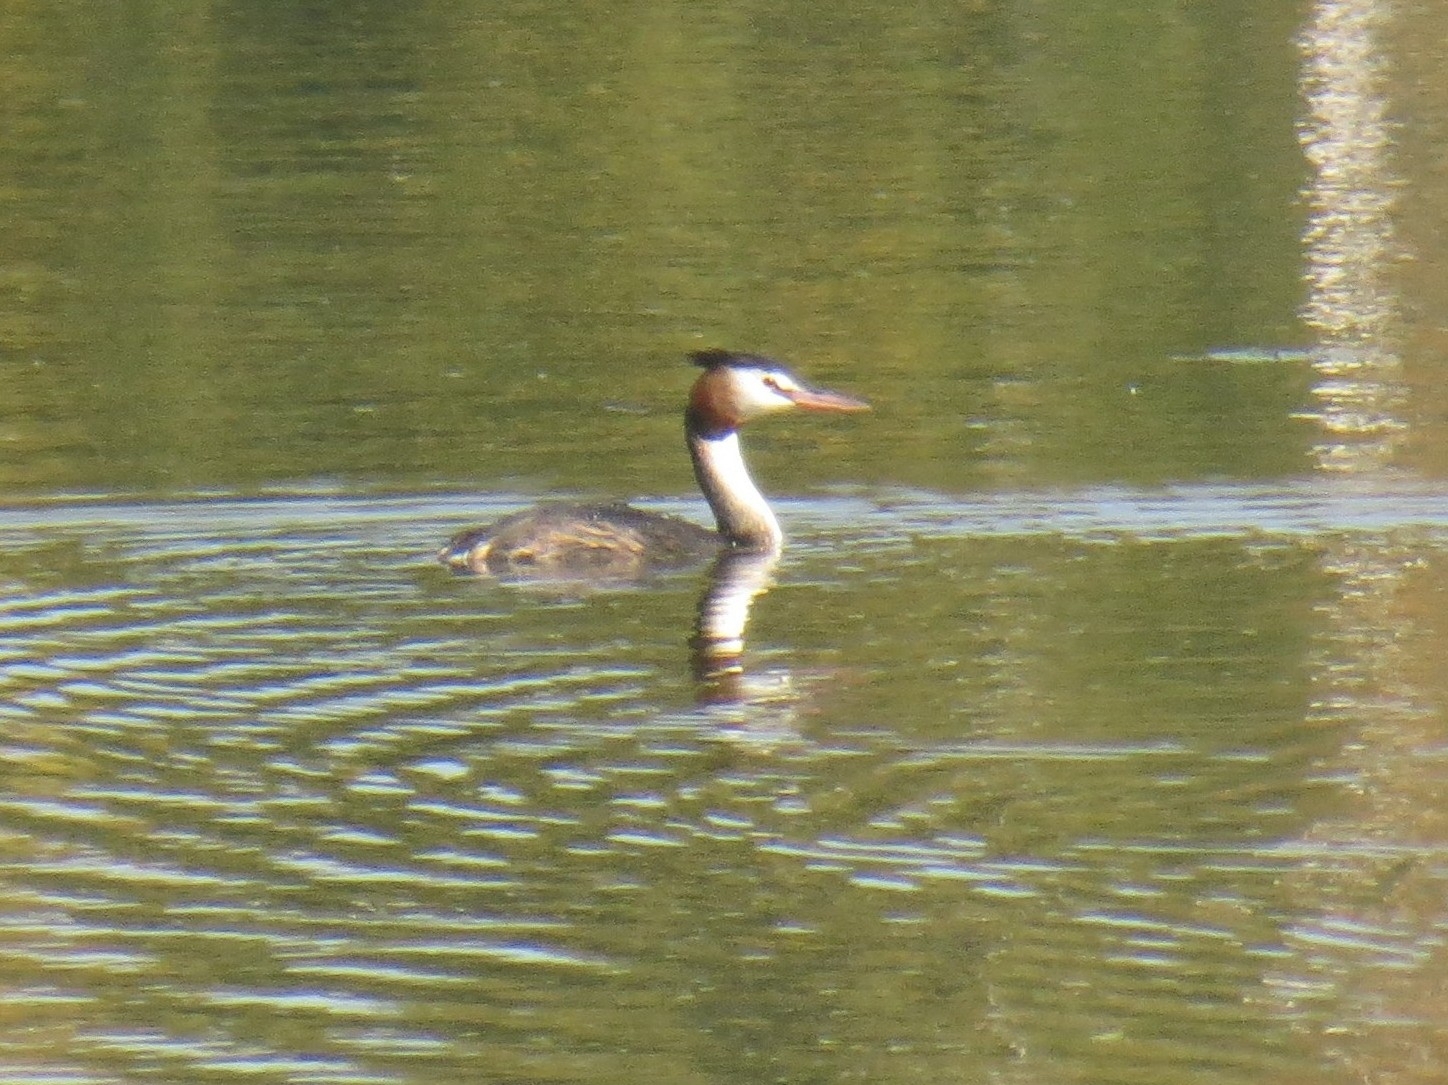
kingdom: Animalia
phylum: Chordata
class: Aves
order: Podicipediformes
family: Podicipedidae
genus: Podiceps
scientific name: Podiceps cristatus
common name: Great crested grebe
